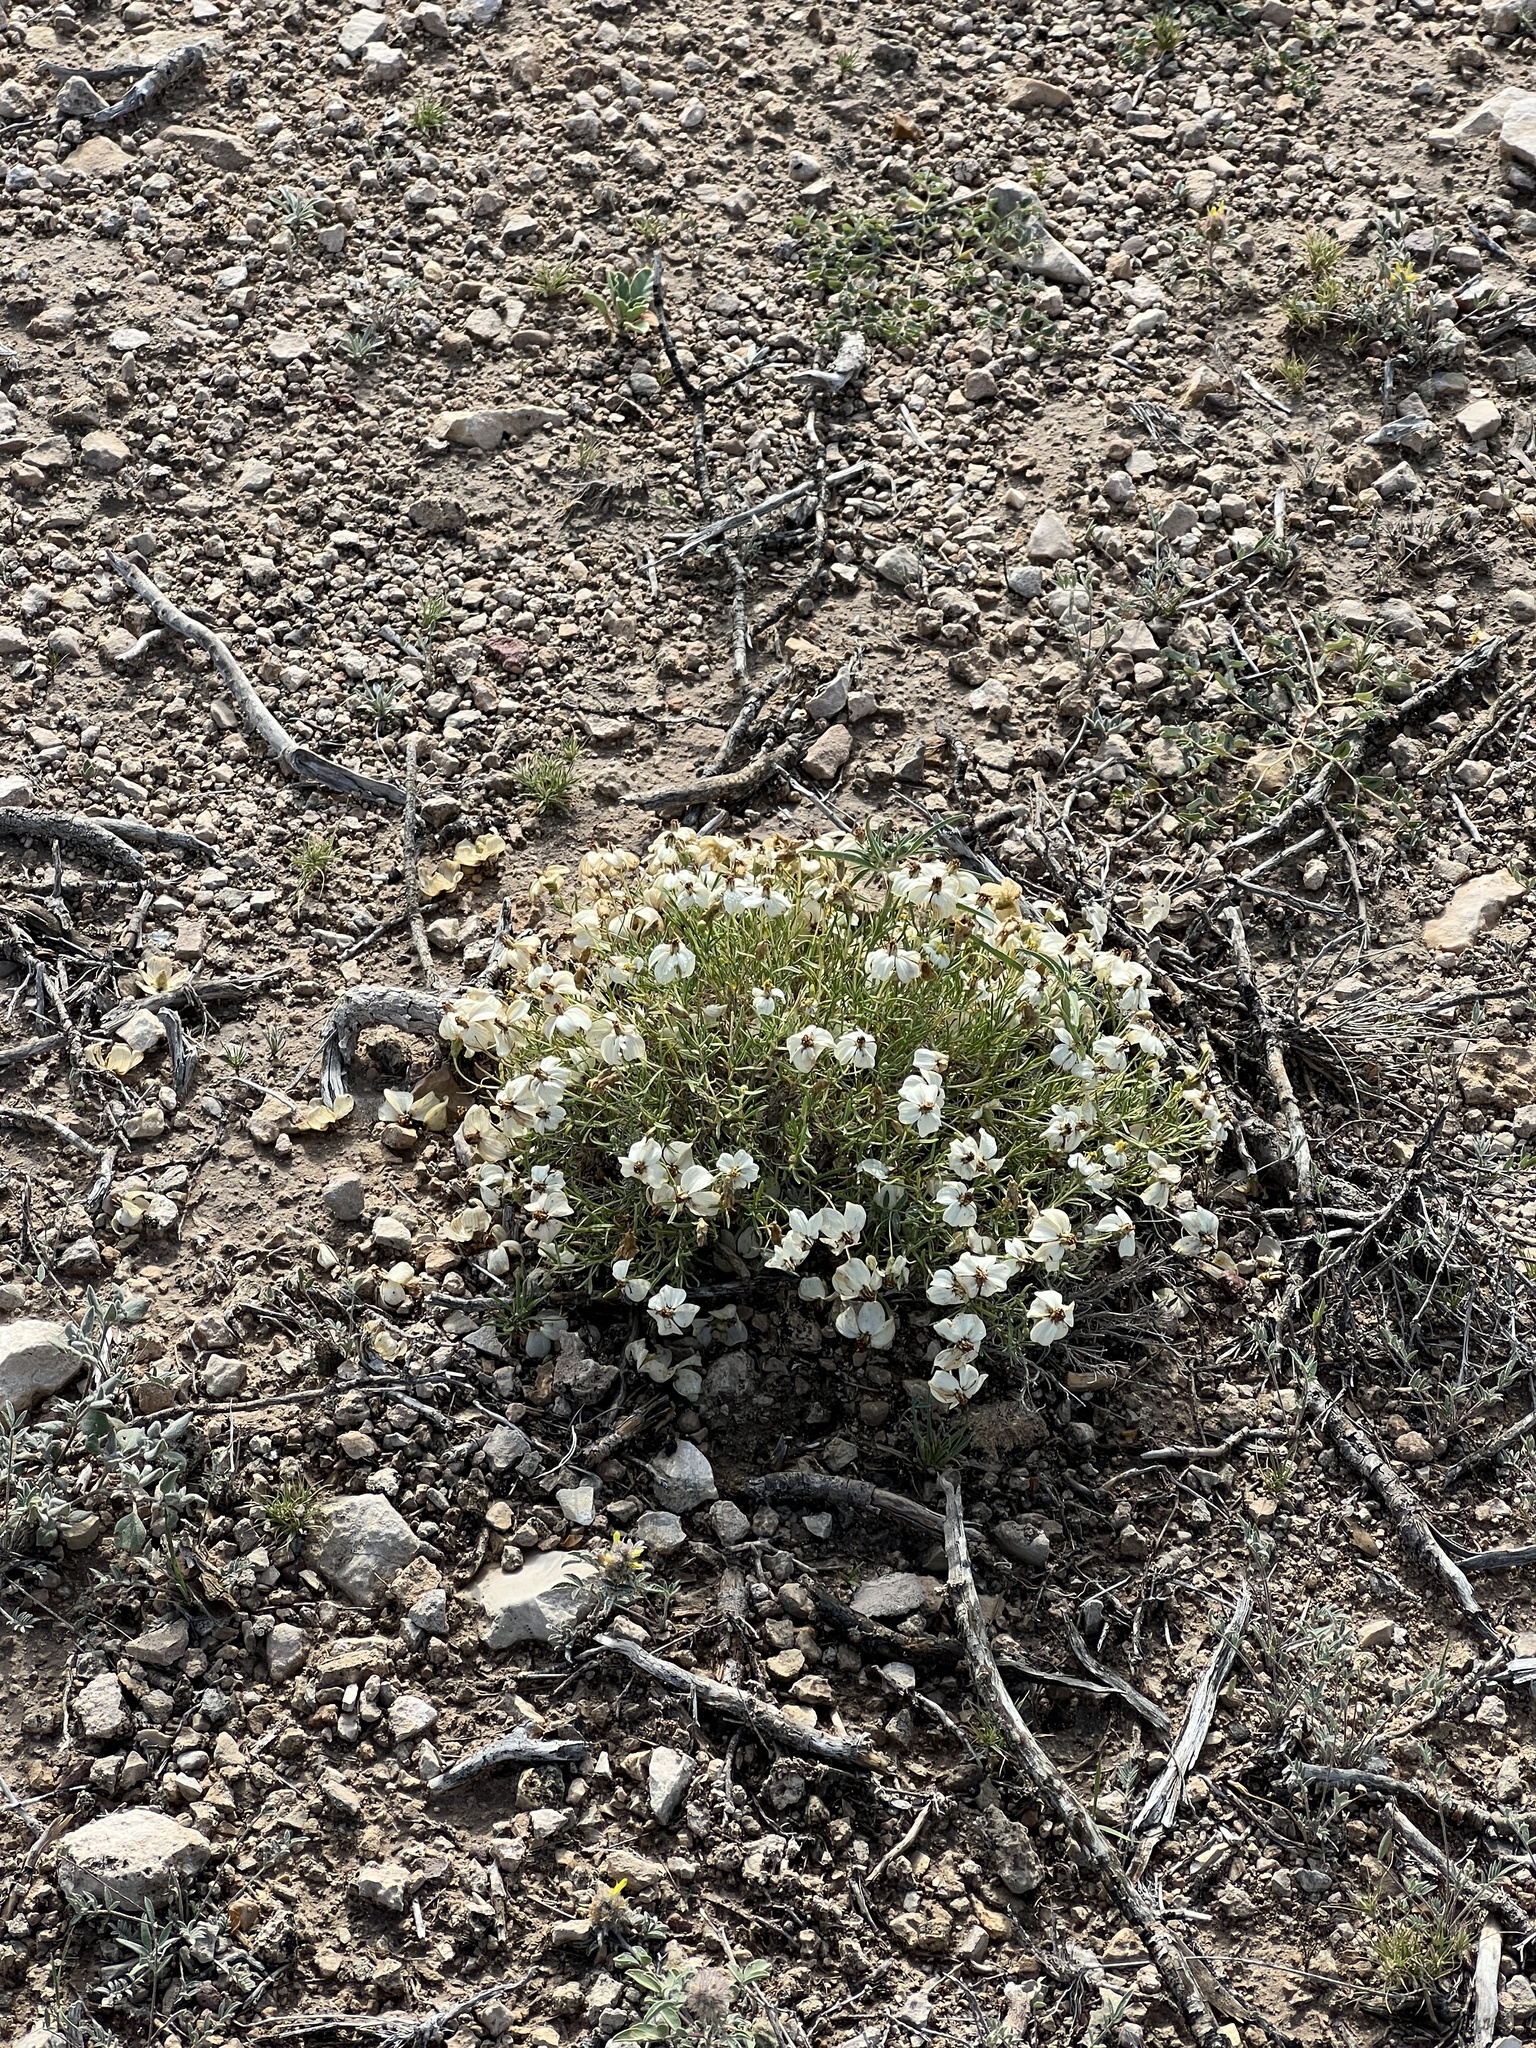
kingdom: Plantae
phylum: Tracheophyta
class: Magnoliopsida
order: Asterales
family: Asteraceae
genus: Zinnia
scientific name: Zinnia acerosa
